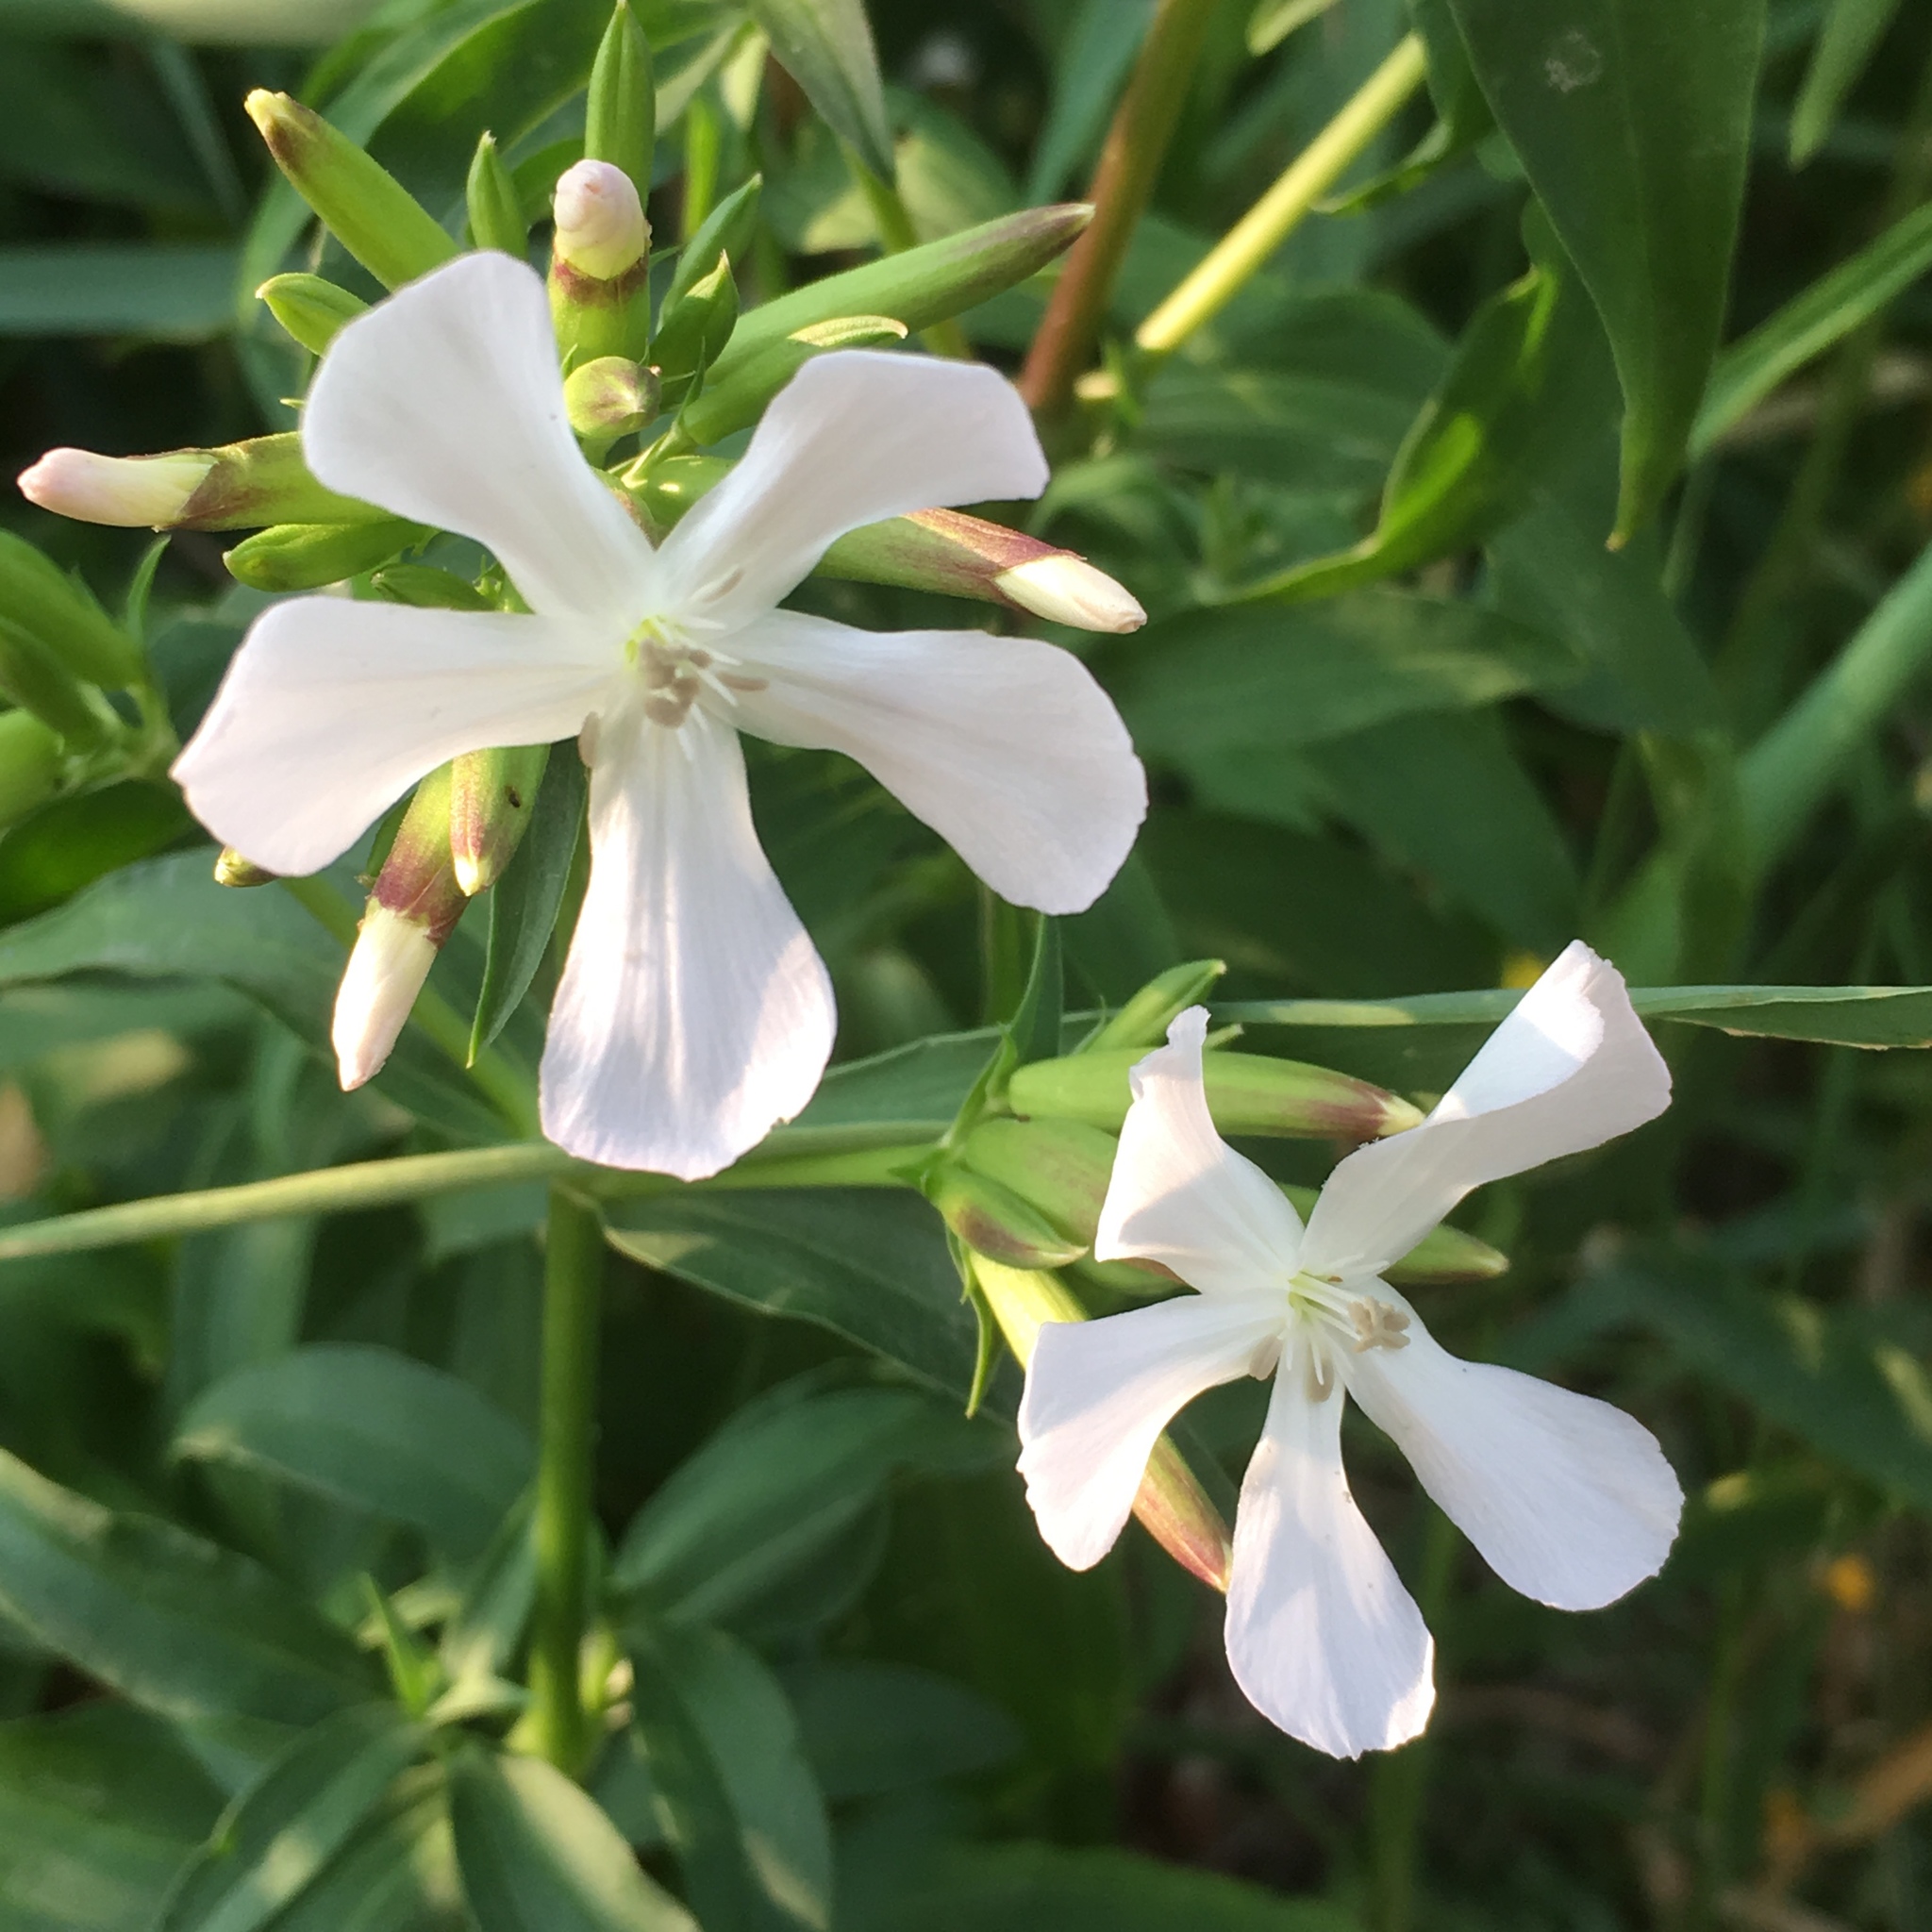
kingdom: Plantae
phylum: Tracheophyta
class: Magnoliopsida
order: Caryophyllales
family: Caryophyllaceae
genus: Saponaria
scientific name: Saponaria officinalis
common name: Soapwort
